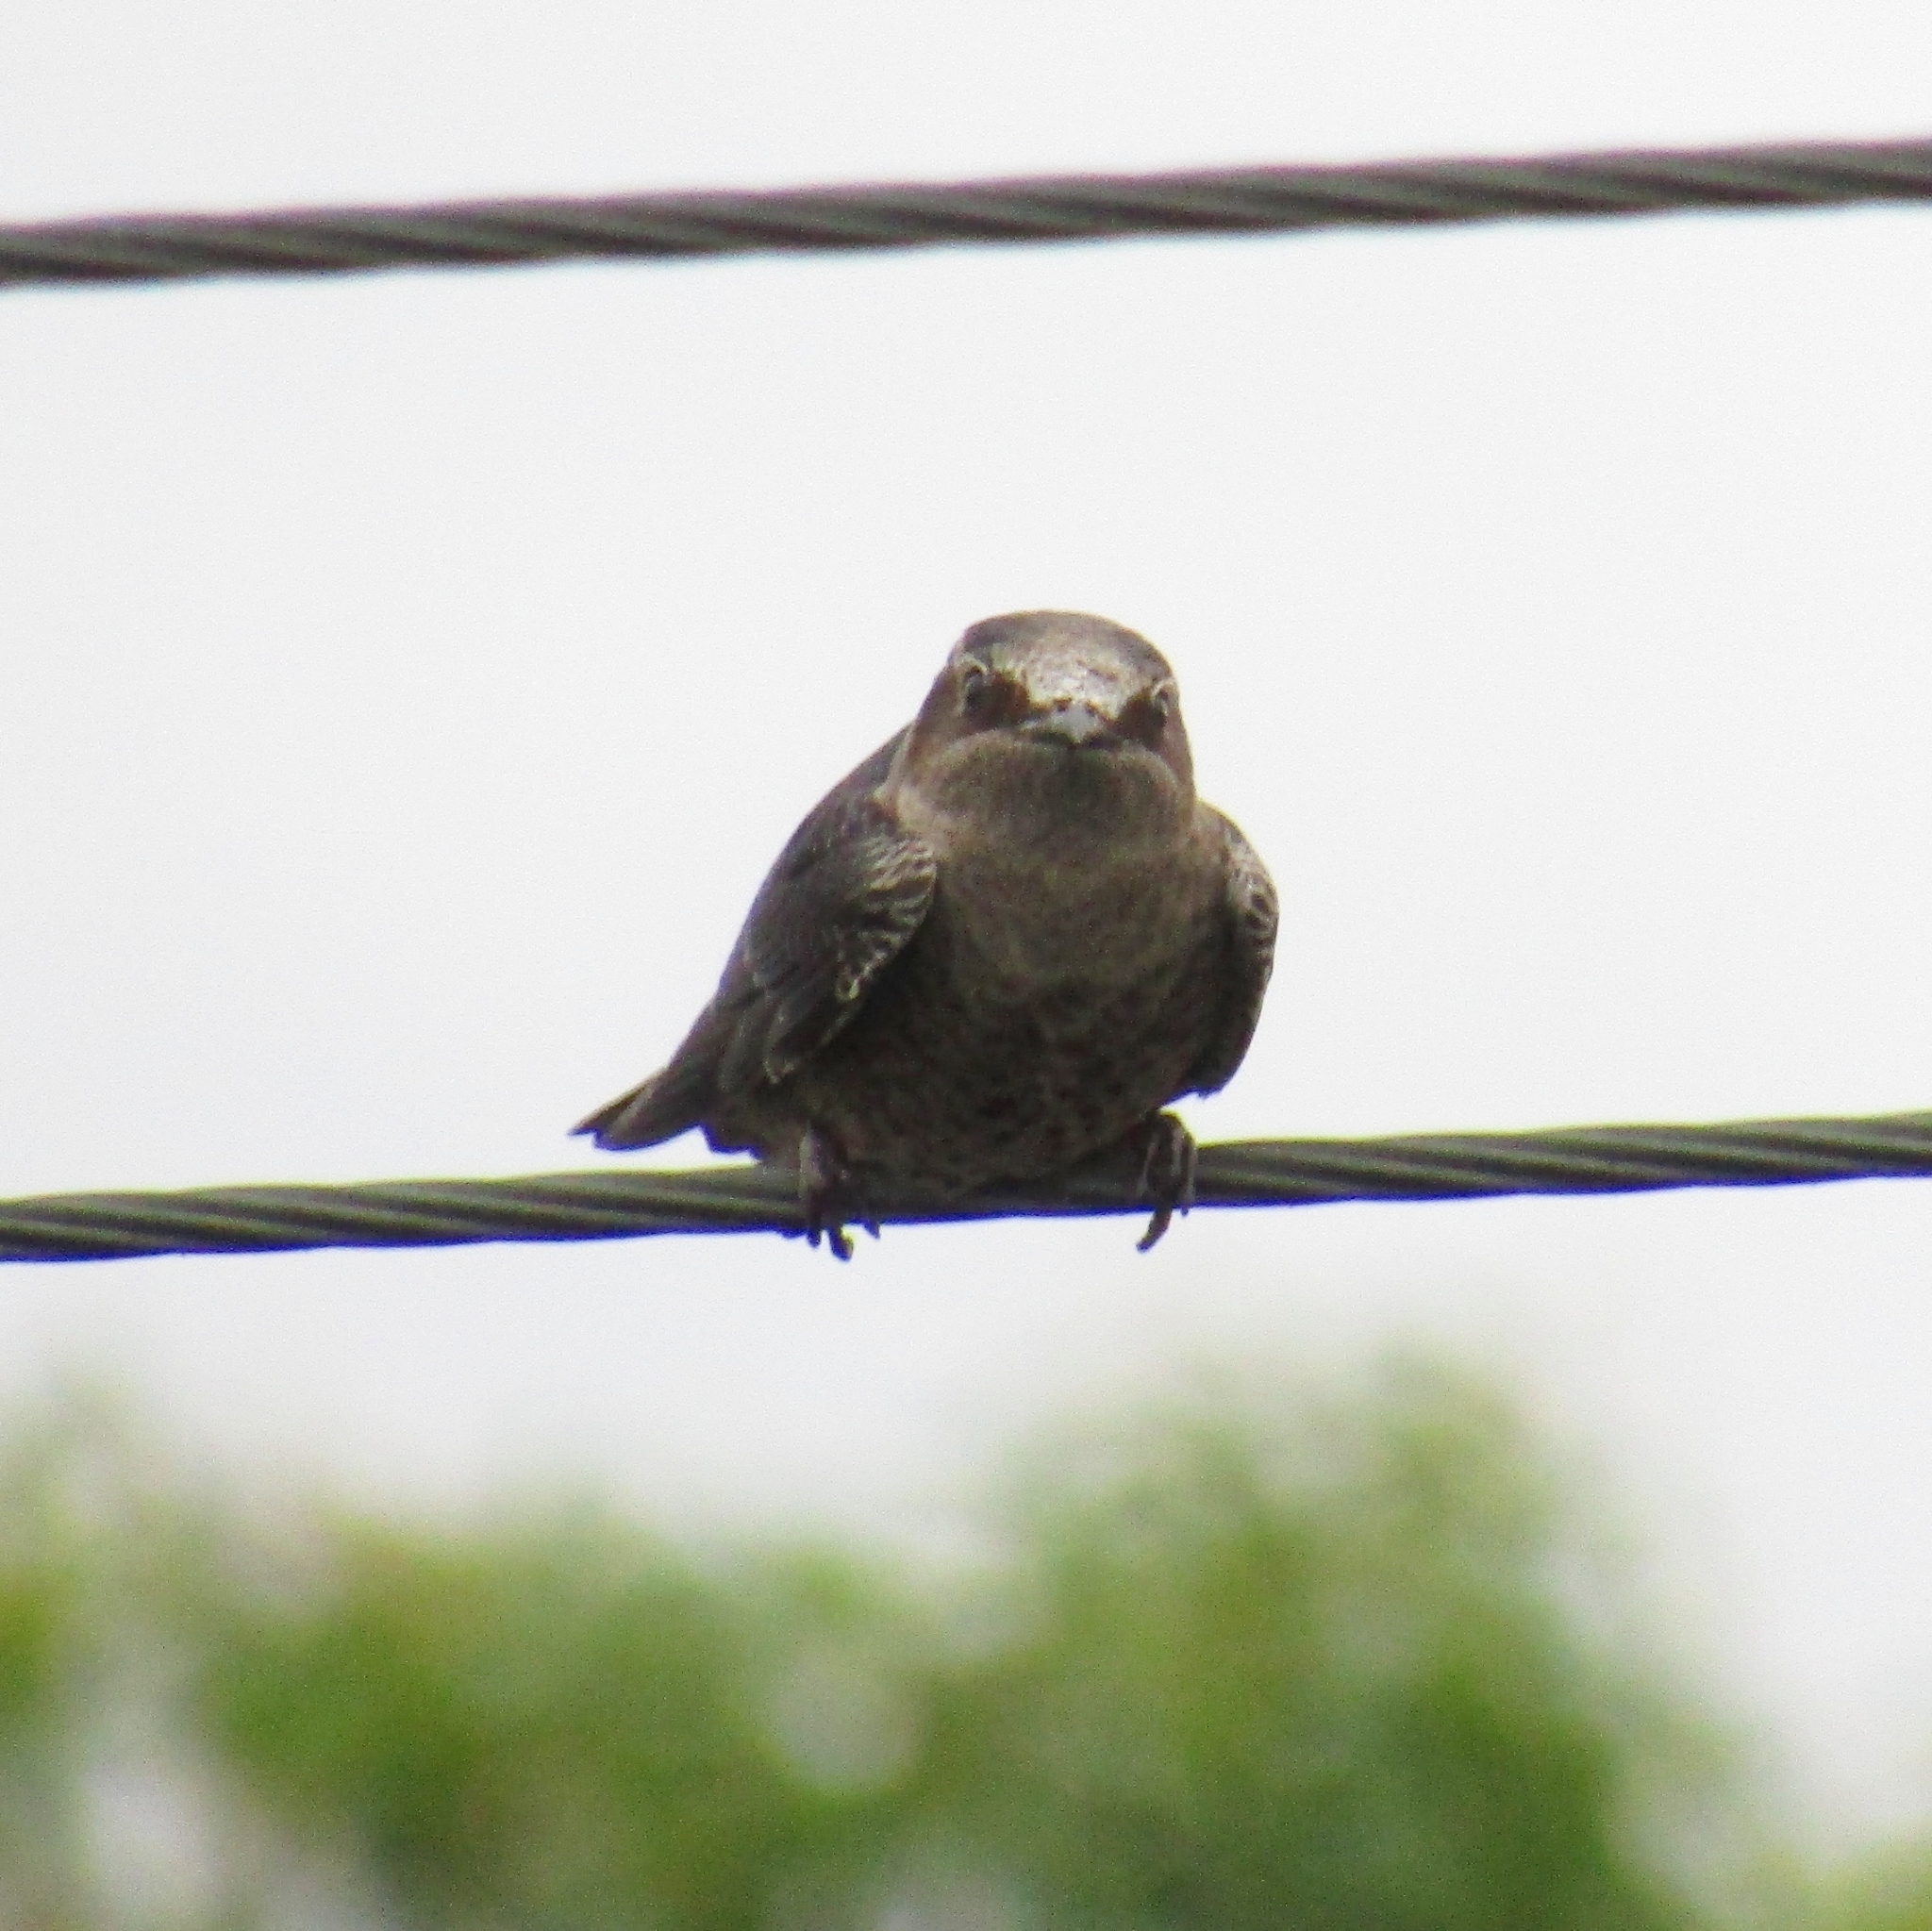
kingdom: Animalia
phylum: Chordata
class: Aves
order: Passeriformes
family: Hirundinidae
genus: Progne
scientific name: Progne elegans
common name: Southern martin
